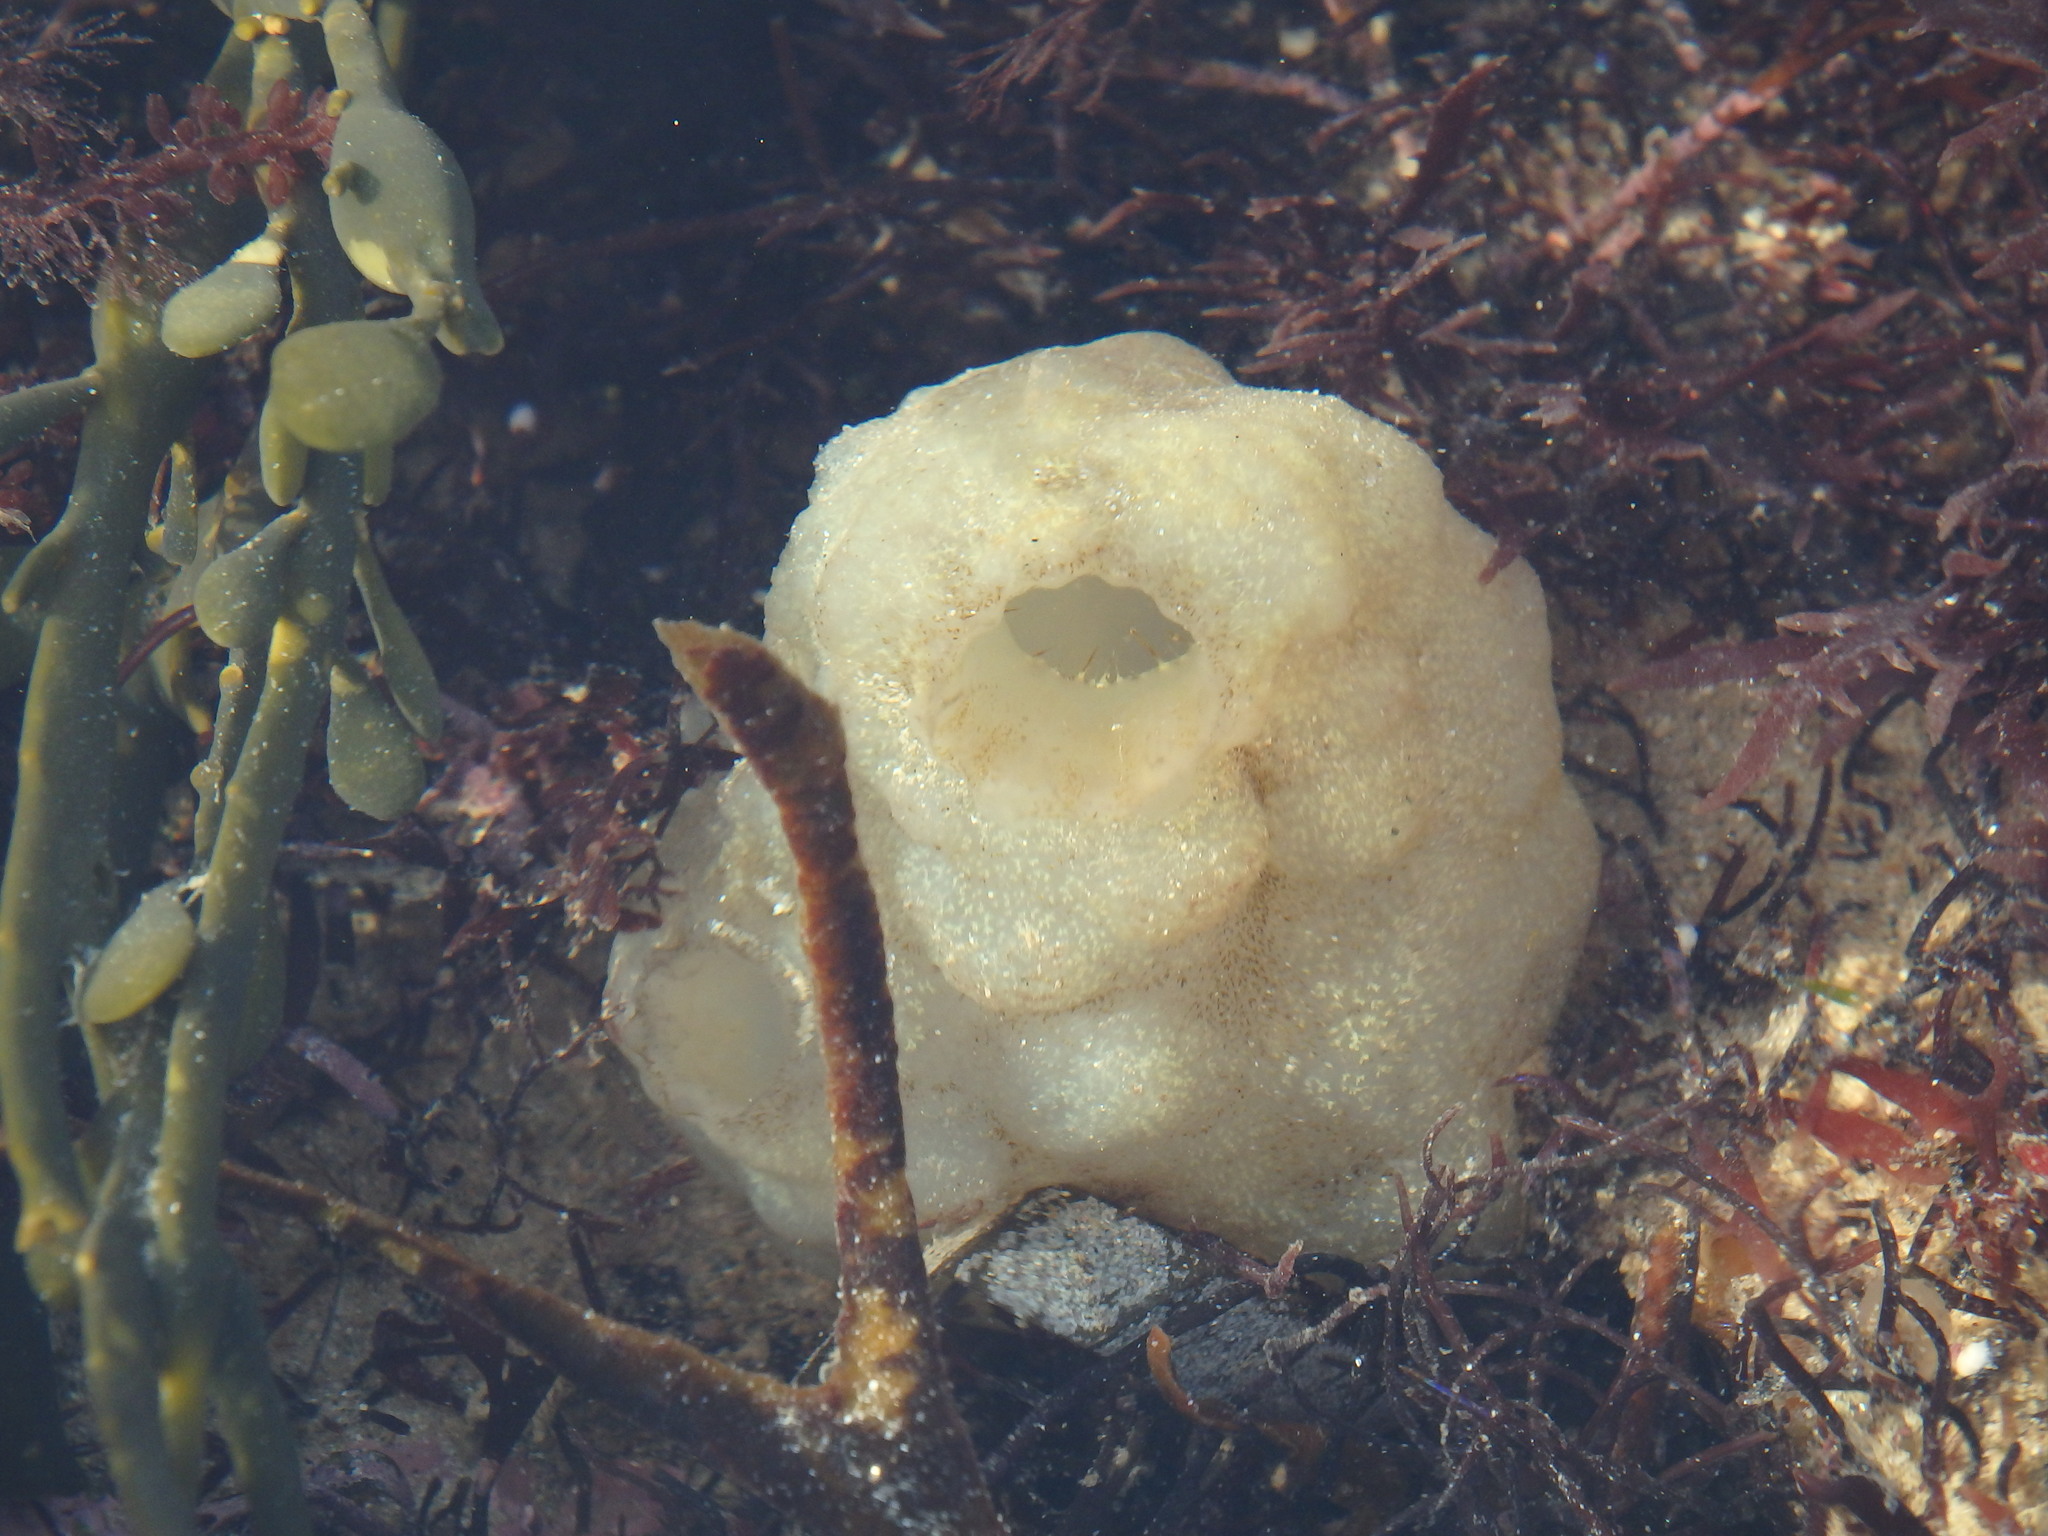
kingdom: Animalia
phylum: Chordata
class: Ascidiacea
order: Phlebobranchia
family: Ascidiidae
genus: Phallusia
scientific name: Phallusia mammillata
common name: Neptune's heart sea squirt
